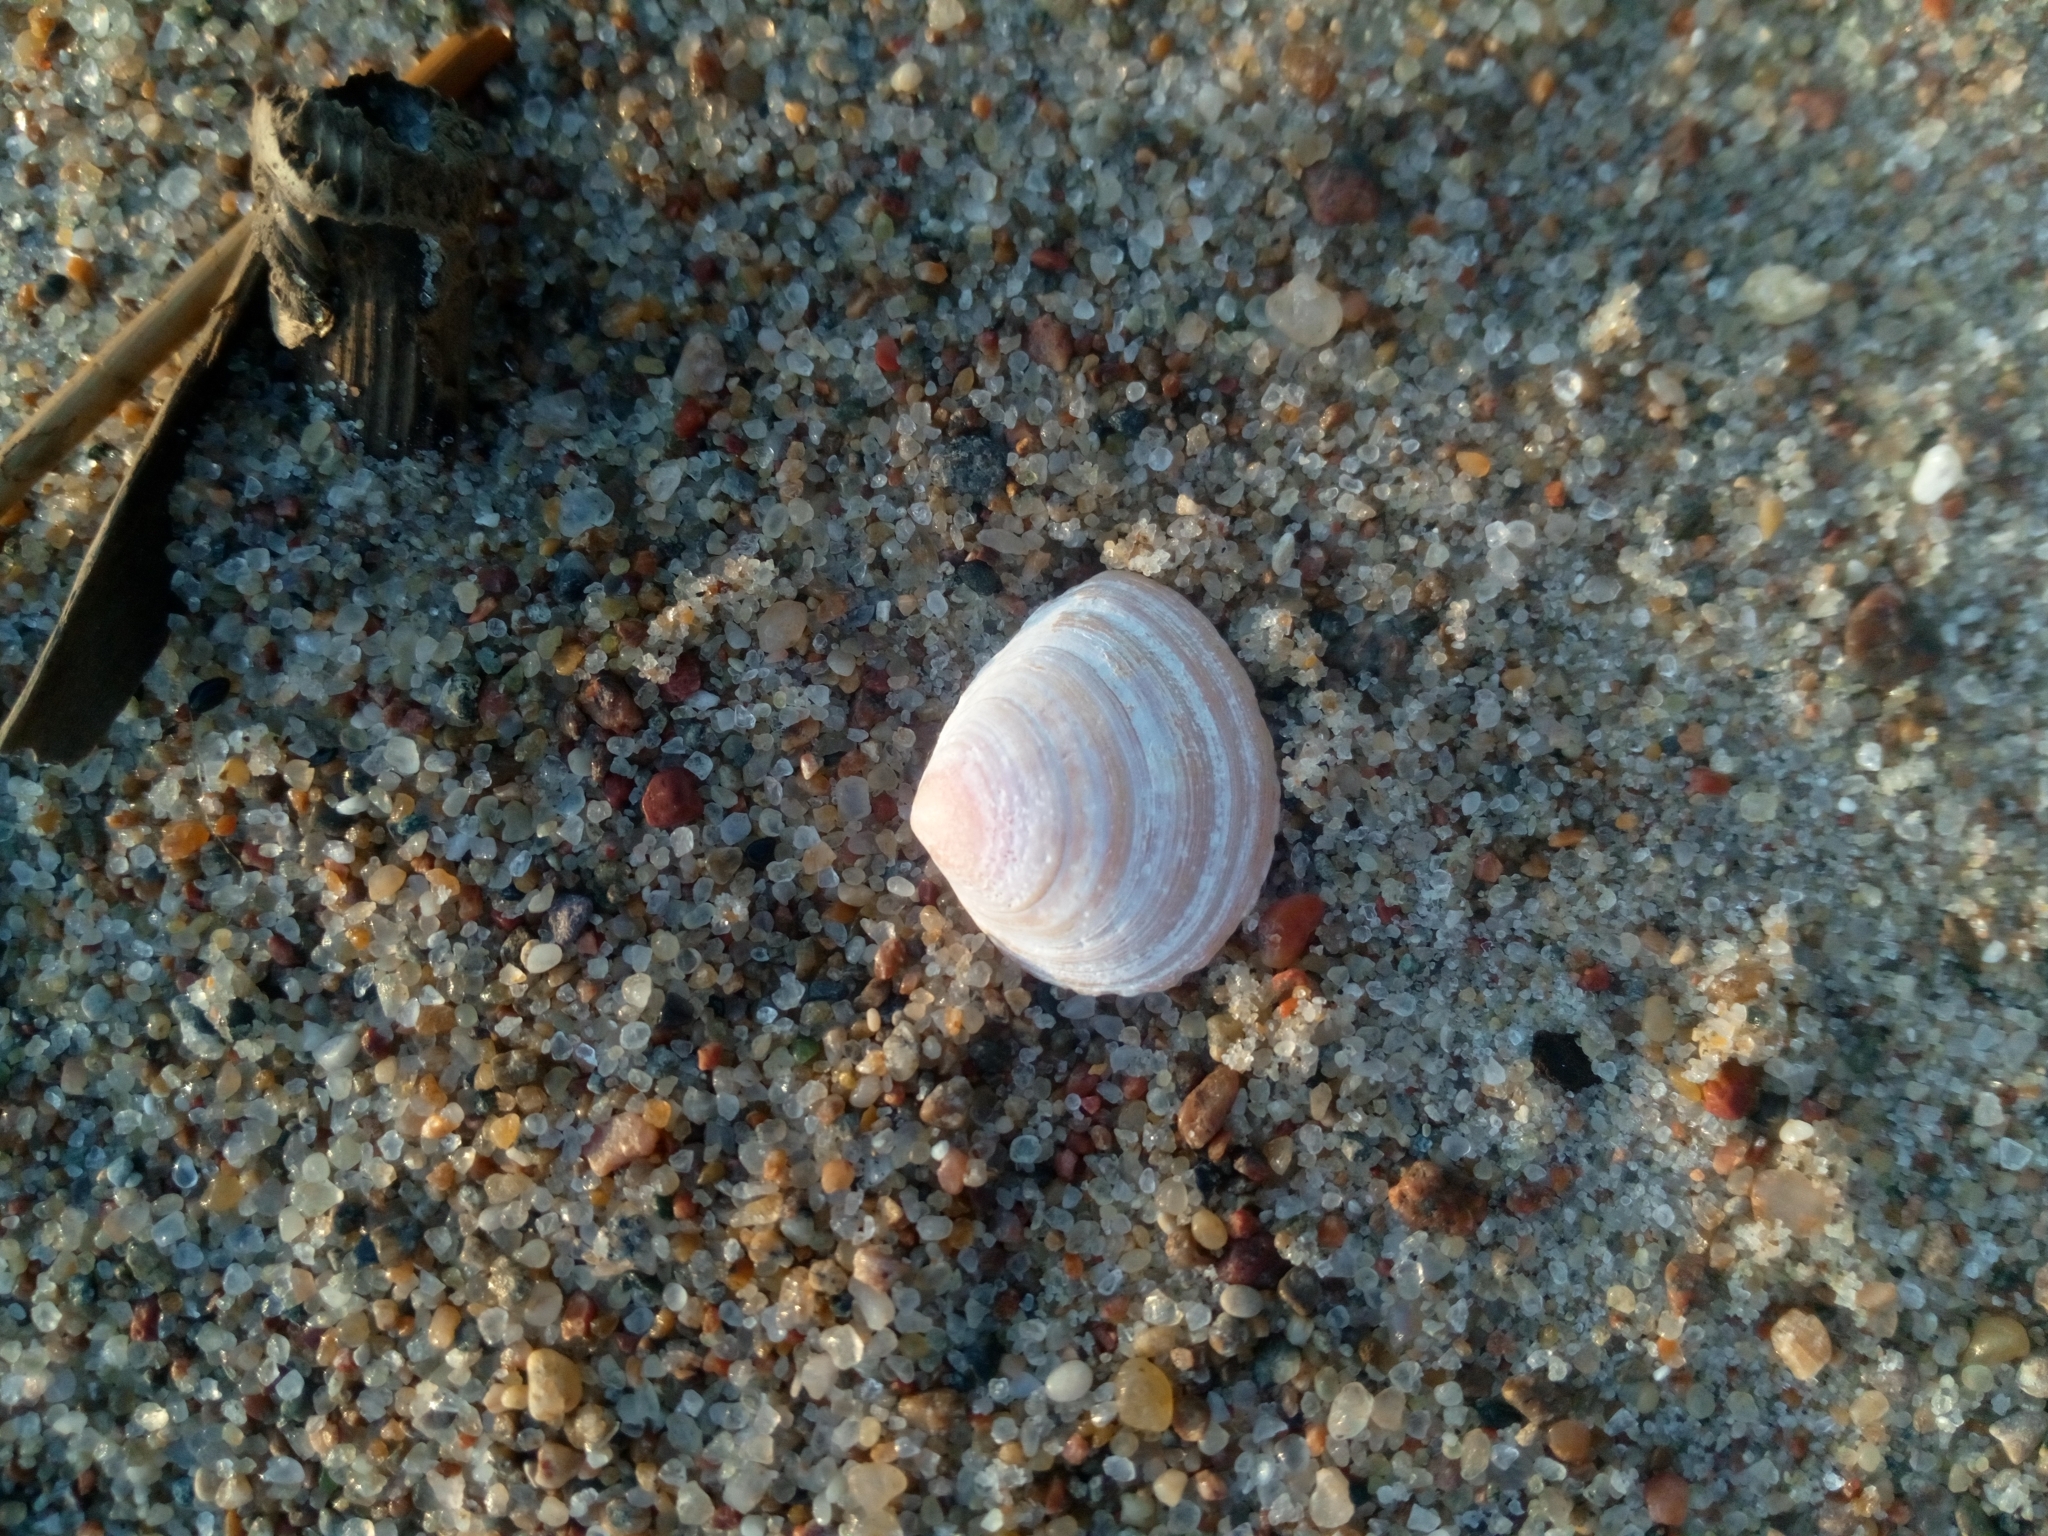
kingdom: Animalia
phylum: Mollusca
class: Bivalvia
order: Cardiida
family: Tellinidae
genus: Macoma
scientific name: Macoma balthica
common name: Baltic tellin
